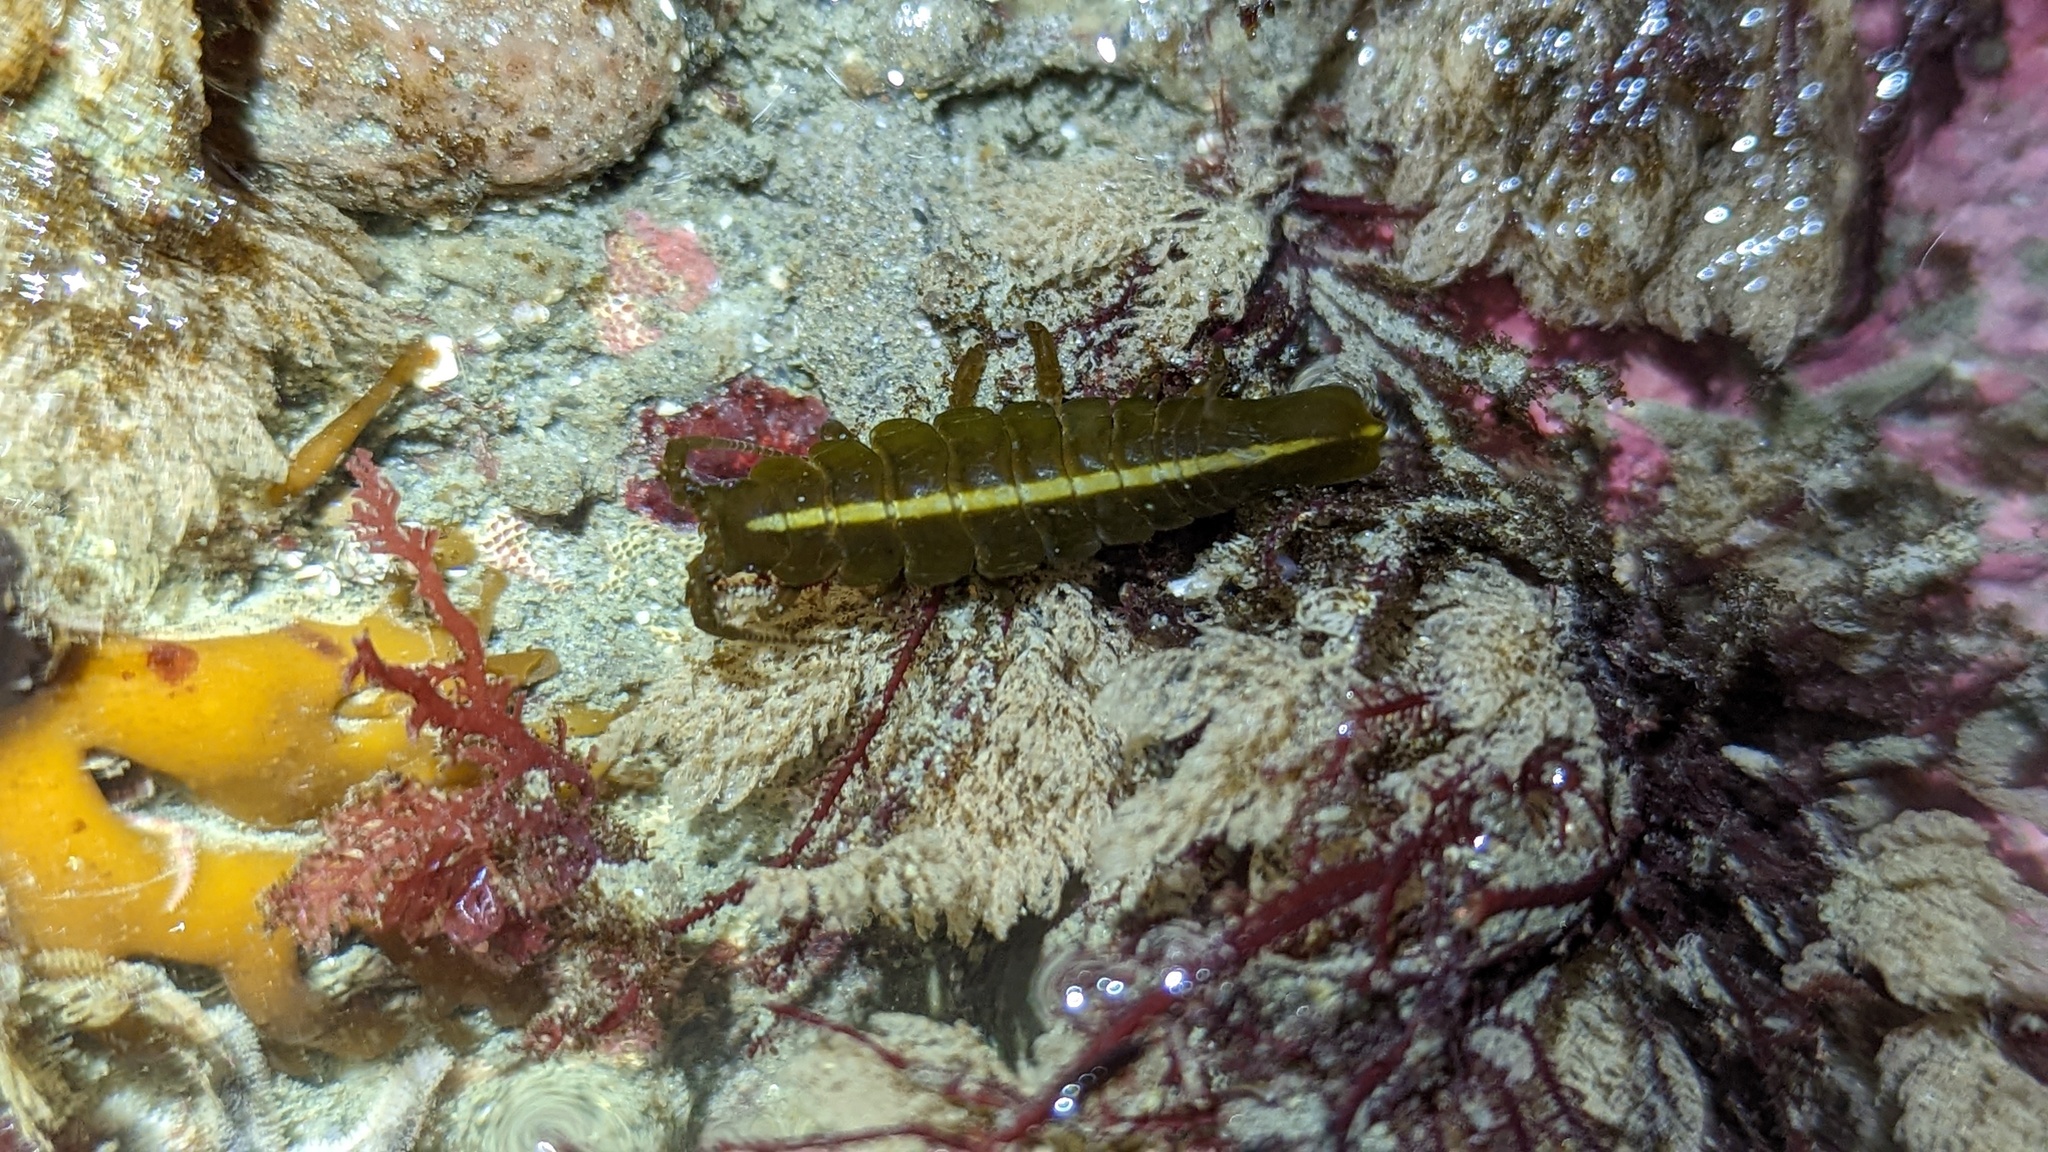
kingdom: Animalia
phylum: Arthropoda
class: Malacostraca
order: Isopoda
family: Idoteidae
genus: Pentidotea
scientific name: Pentidotea stenops
